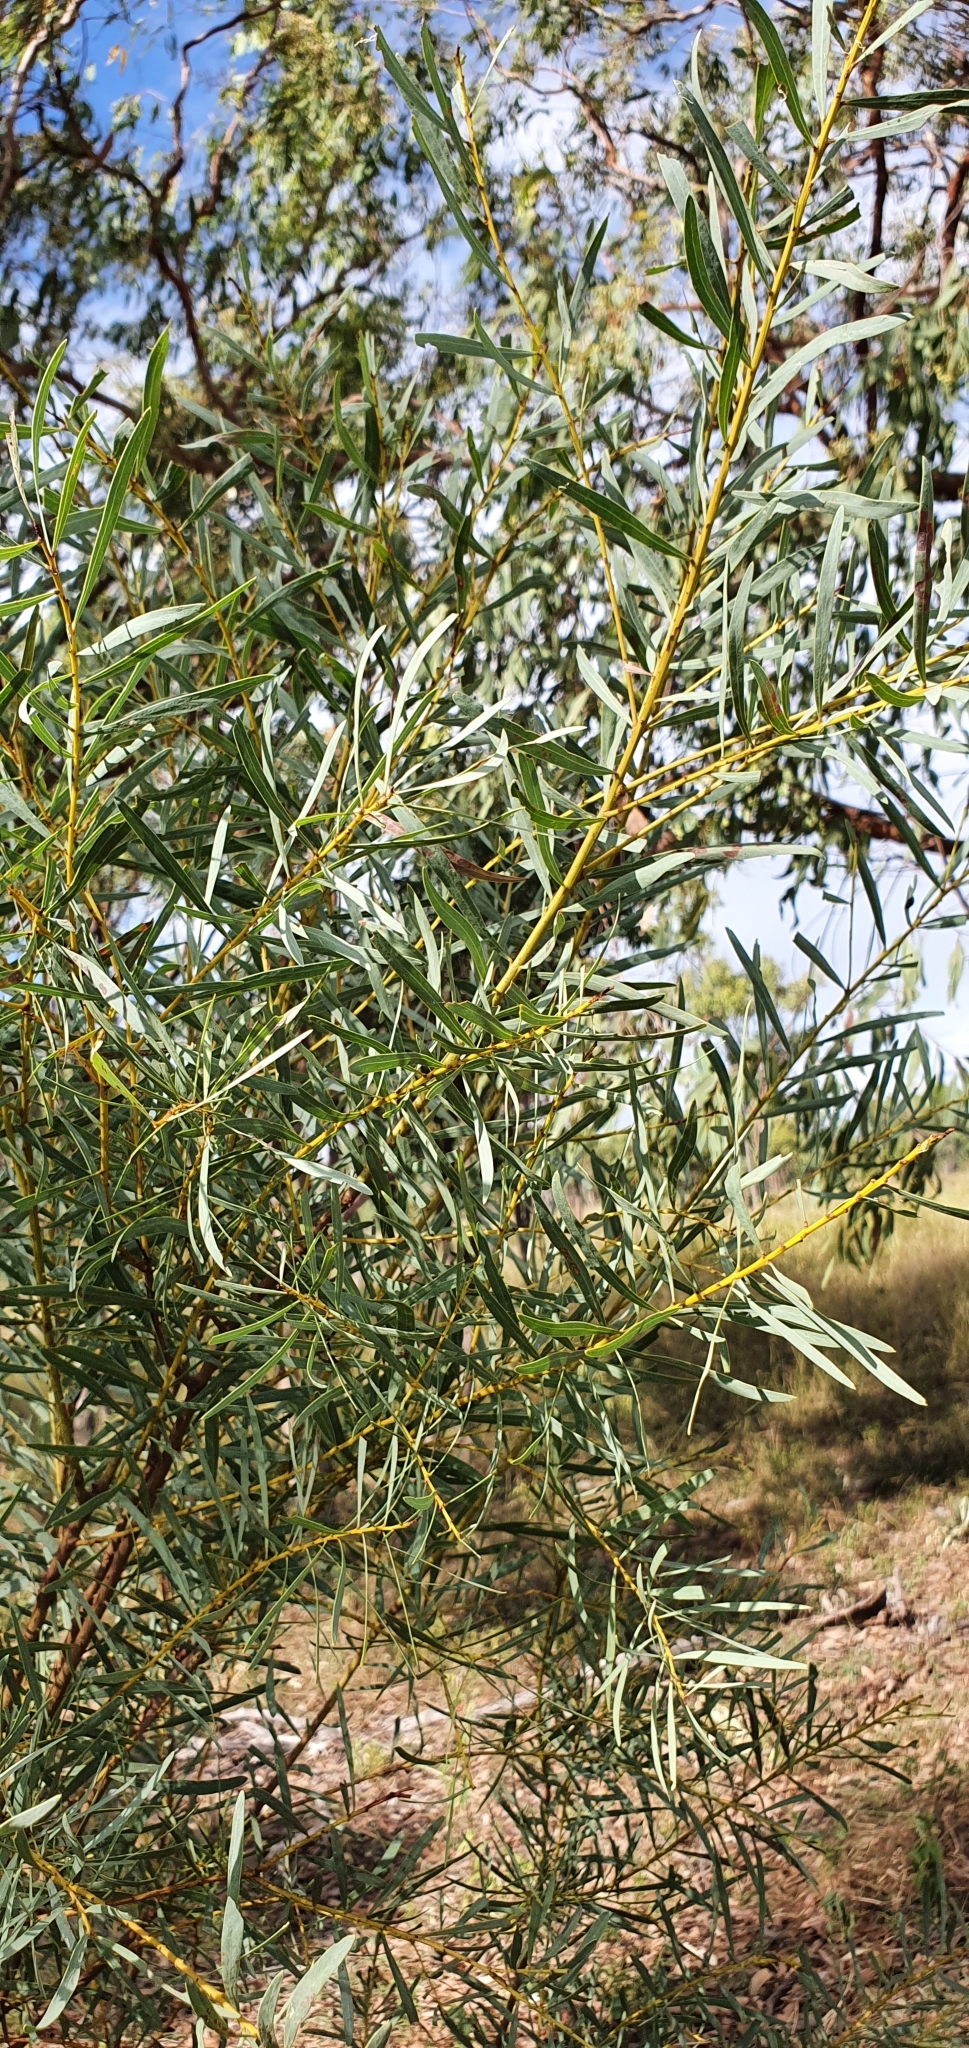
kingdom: Plantae
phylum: Tracheophyta
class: Magnoliopsida
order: Fabales
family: Fabaceae
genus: Acacia
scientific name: Acacia decora
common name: Showy wattle
